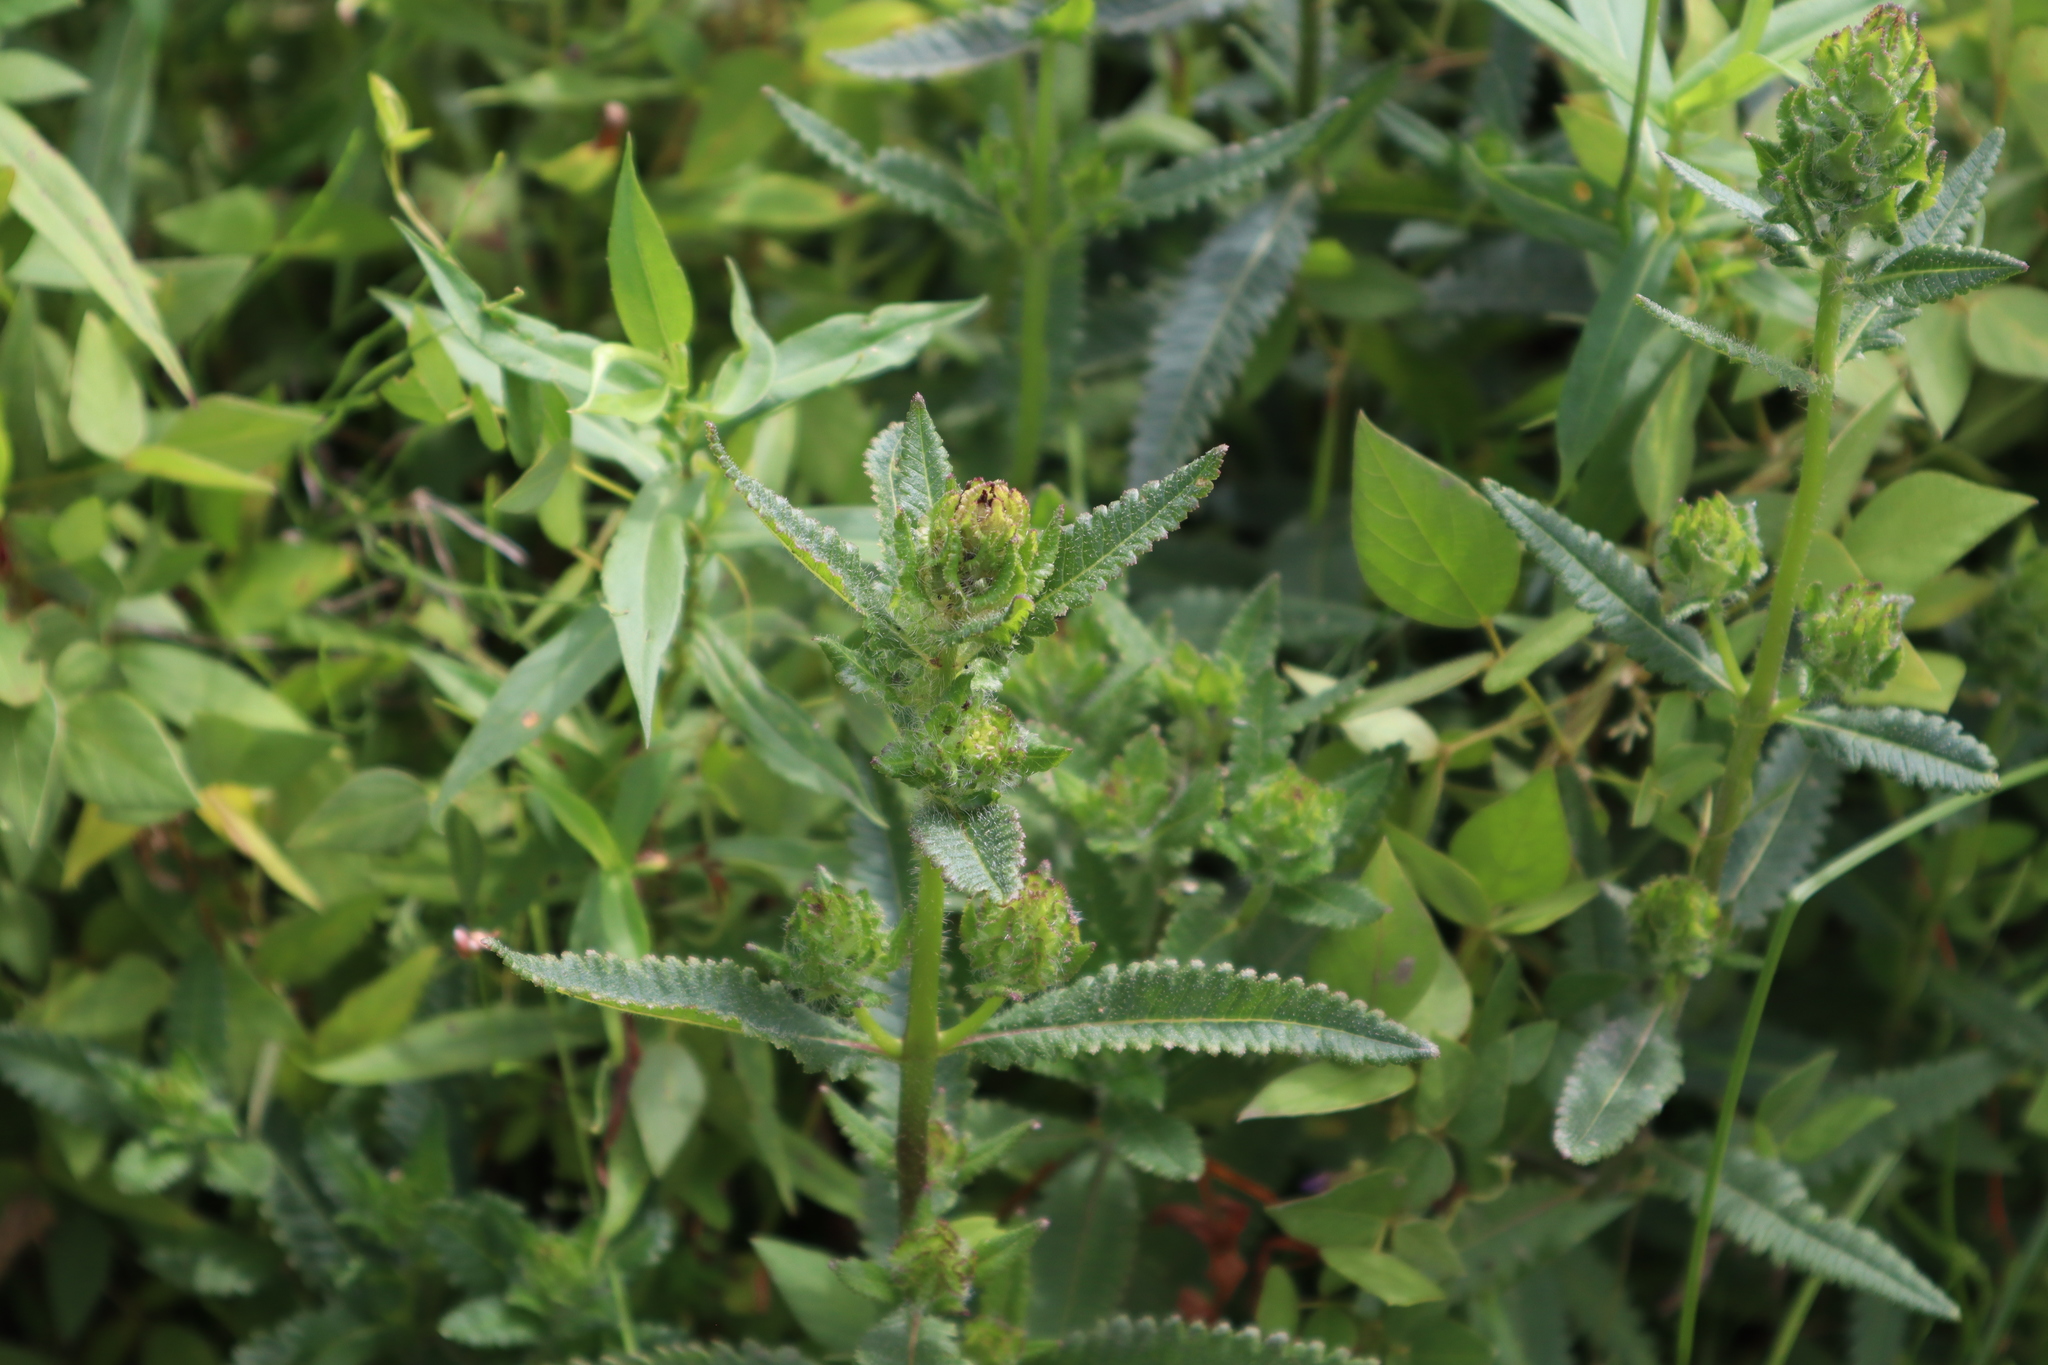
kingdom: Plantae
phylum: Tracheophyta
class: Magnoliopsida
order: Lamiales
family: Orobanchaceae
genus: Pedicularis
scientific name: Pedicularis lanceolata
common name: Swamp lousewort
